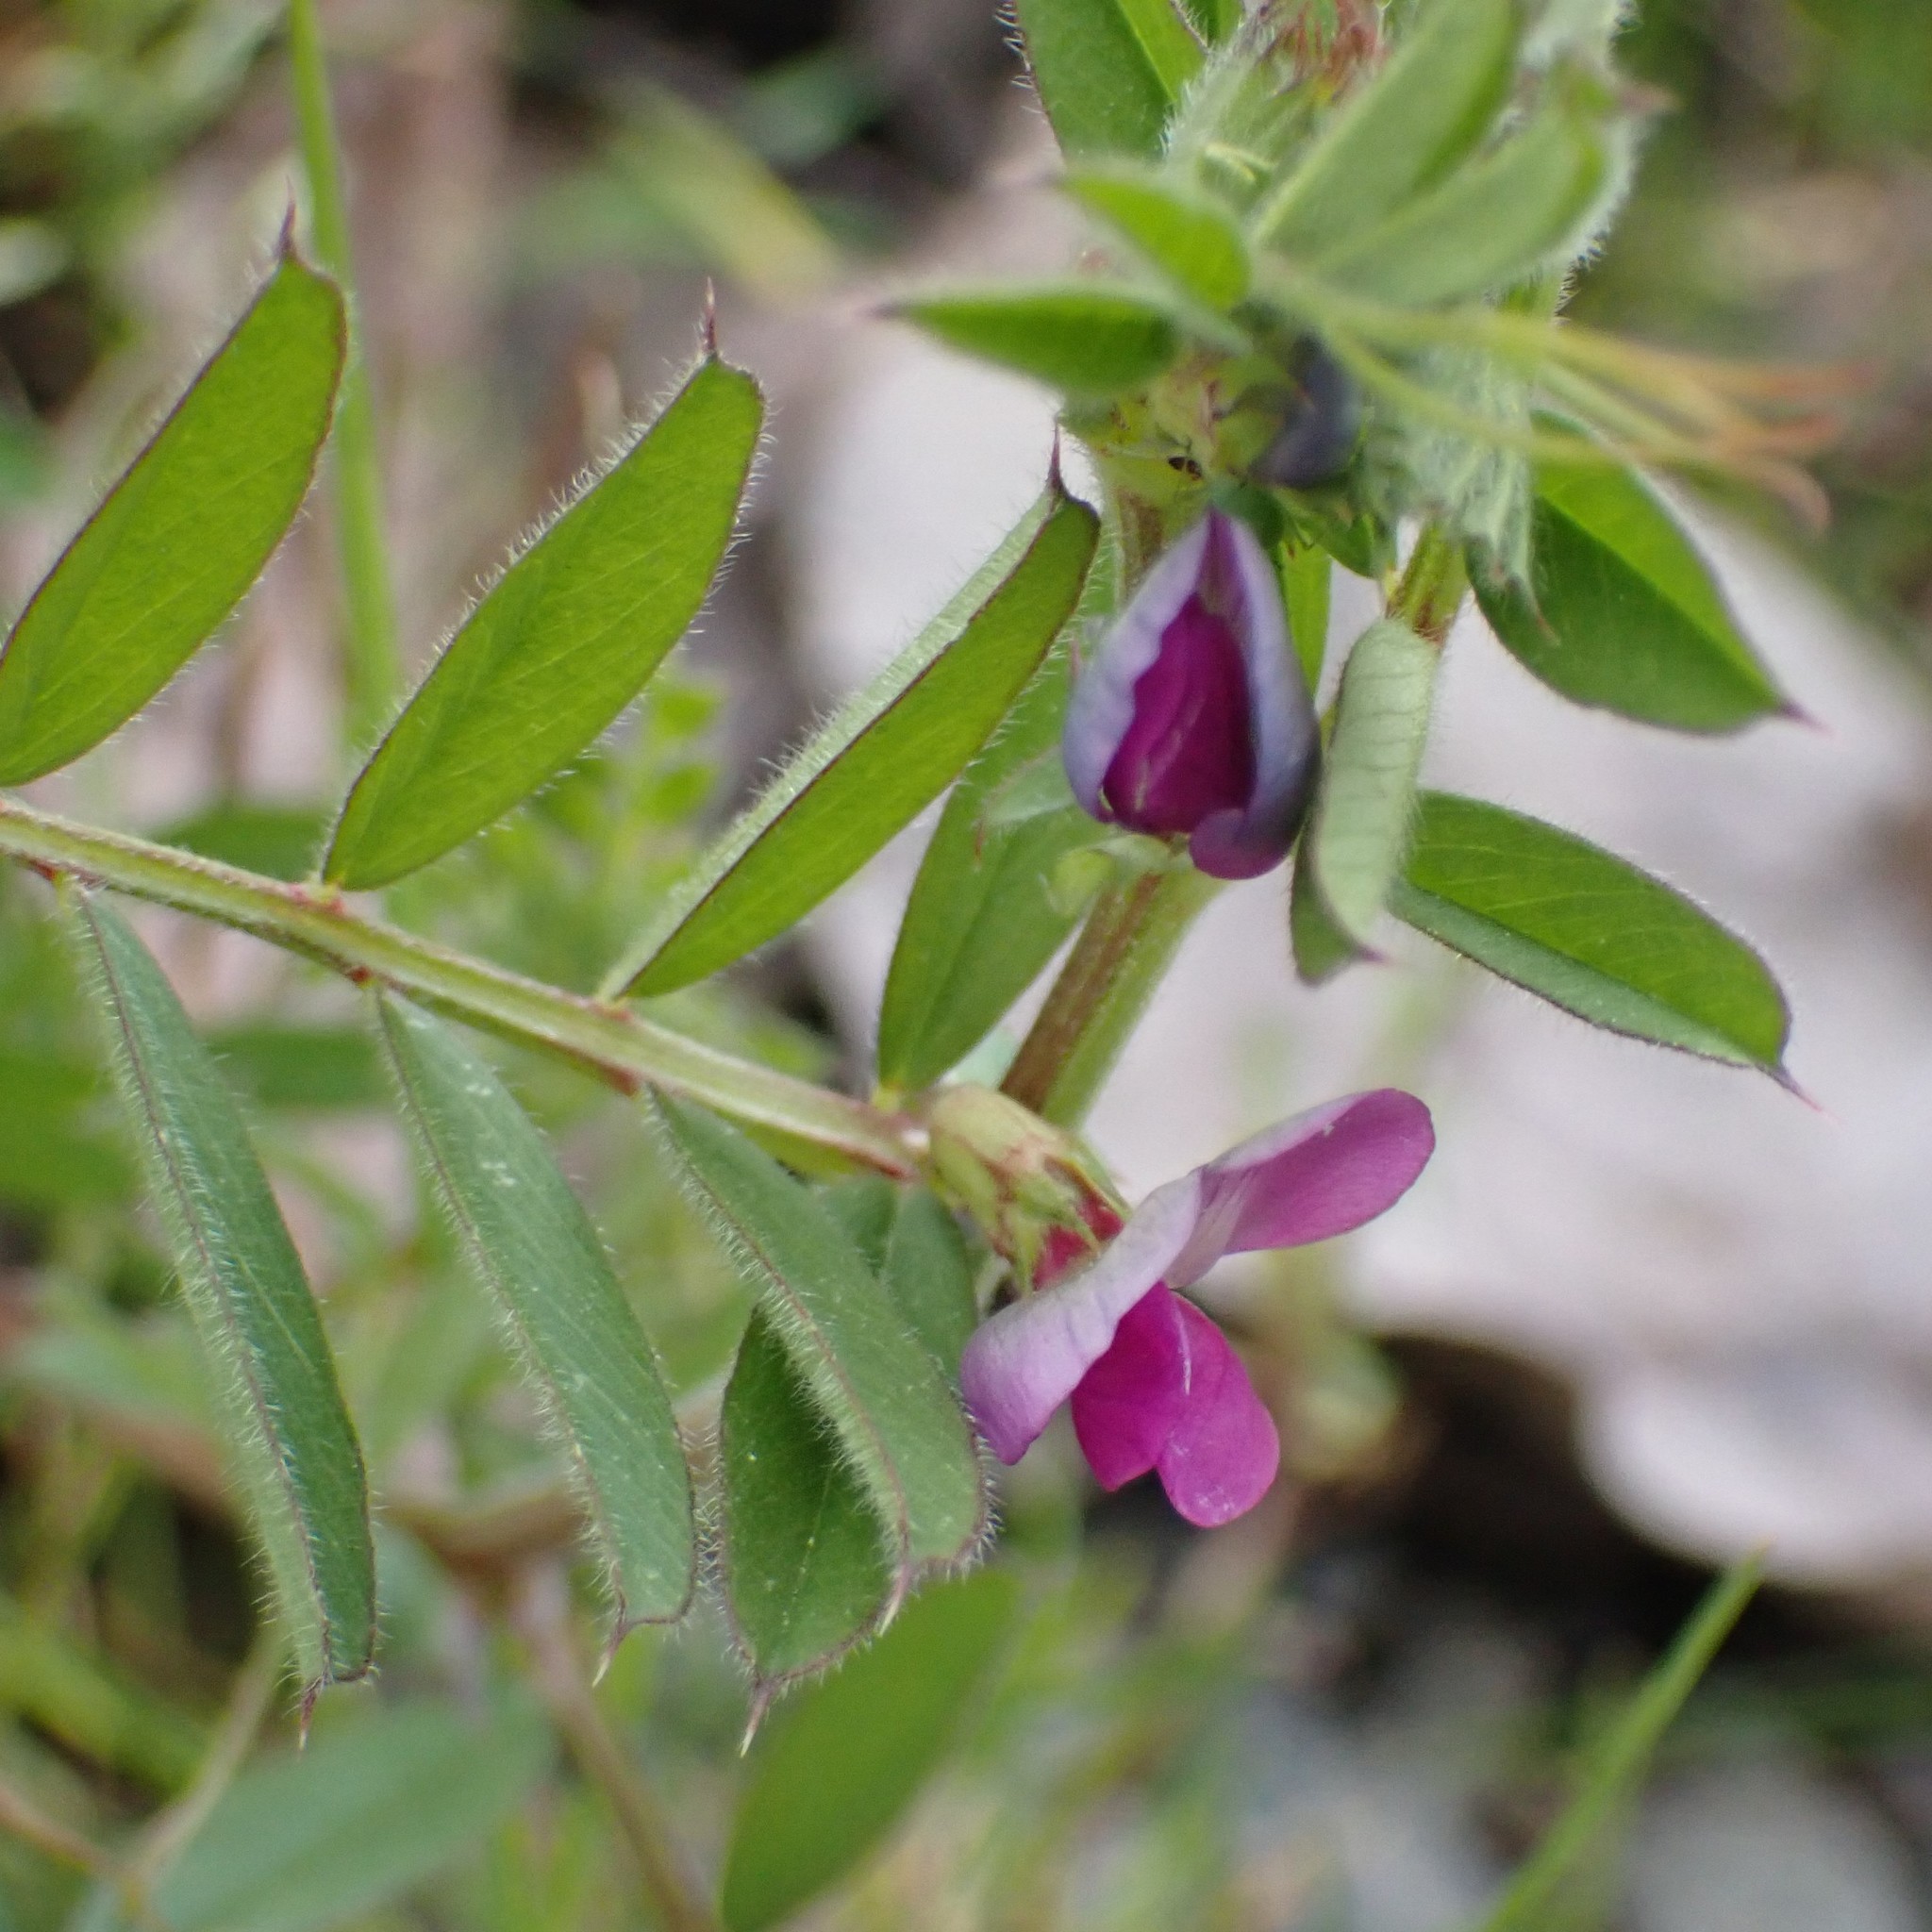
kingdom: Plantae
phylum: Tracheophyta
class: Magnoliopsida
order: Fabales
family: Fabaceae
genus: Vicia
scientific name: Vicia sativa
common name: Garden vetch
